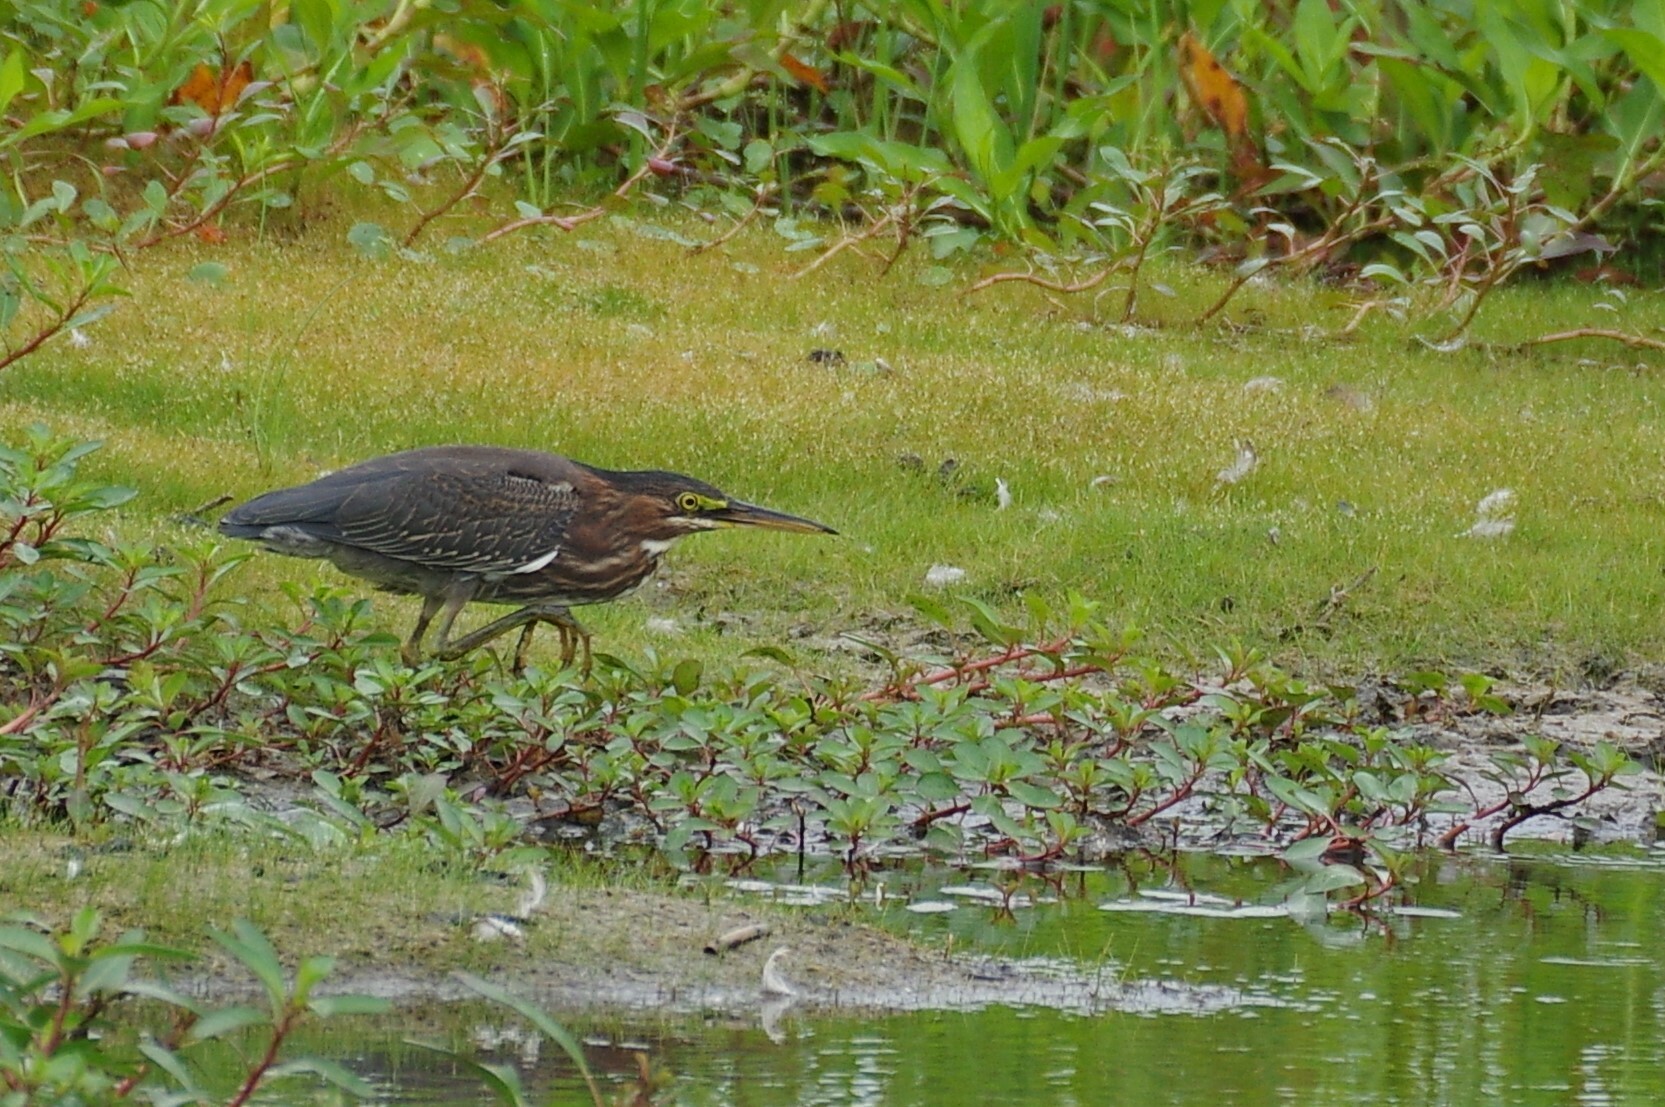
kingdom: Animalia
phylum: Chordata
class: Aves
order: Pelecaniformes
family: Ardeidae
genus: Butorides
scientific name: Butorides virescens
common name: Green heron
